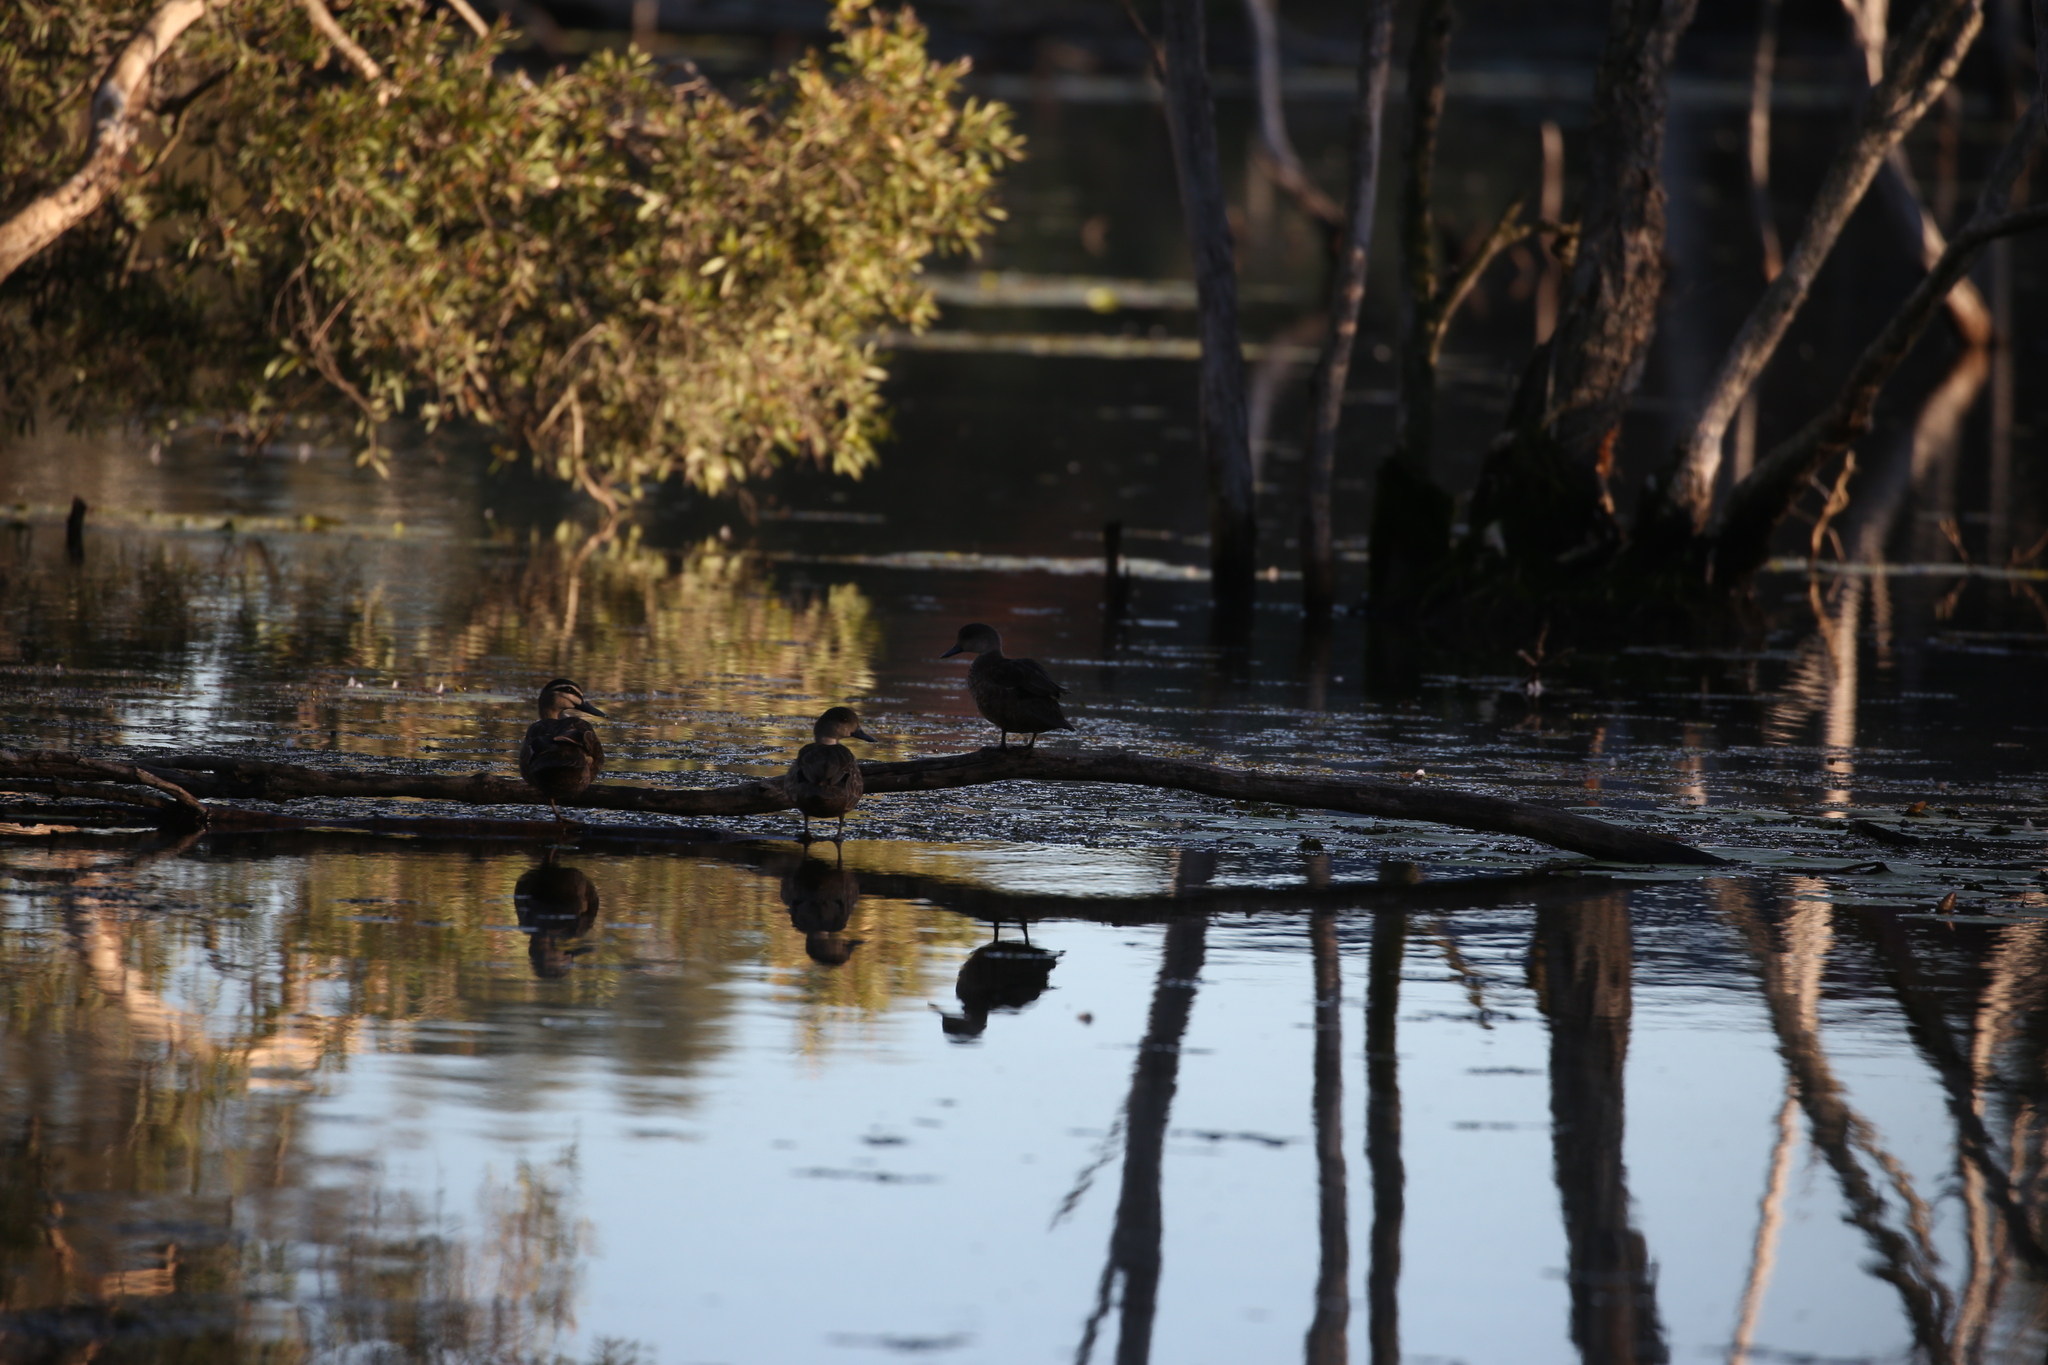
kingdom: Animalia
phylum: Chordata
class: Aves
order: Anseriformes
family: Anatidae
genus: Anas
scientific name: Anas superciliosa
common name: Pacific black duck
